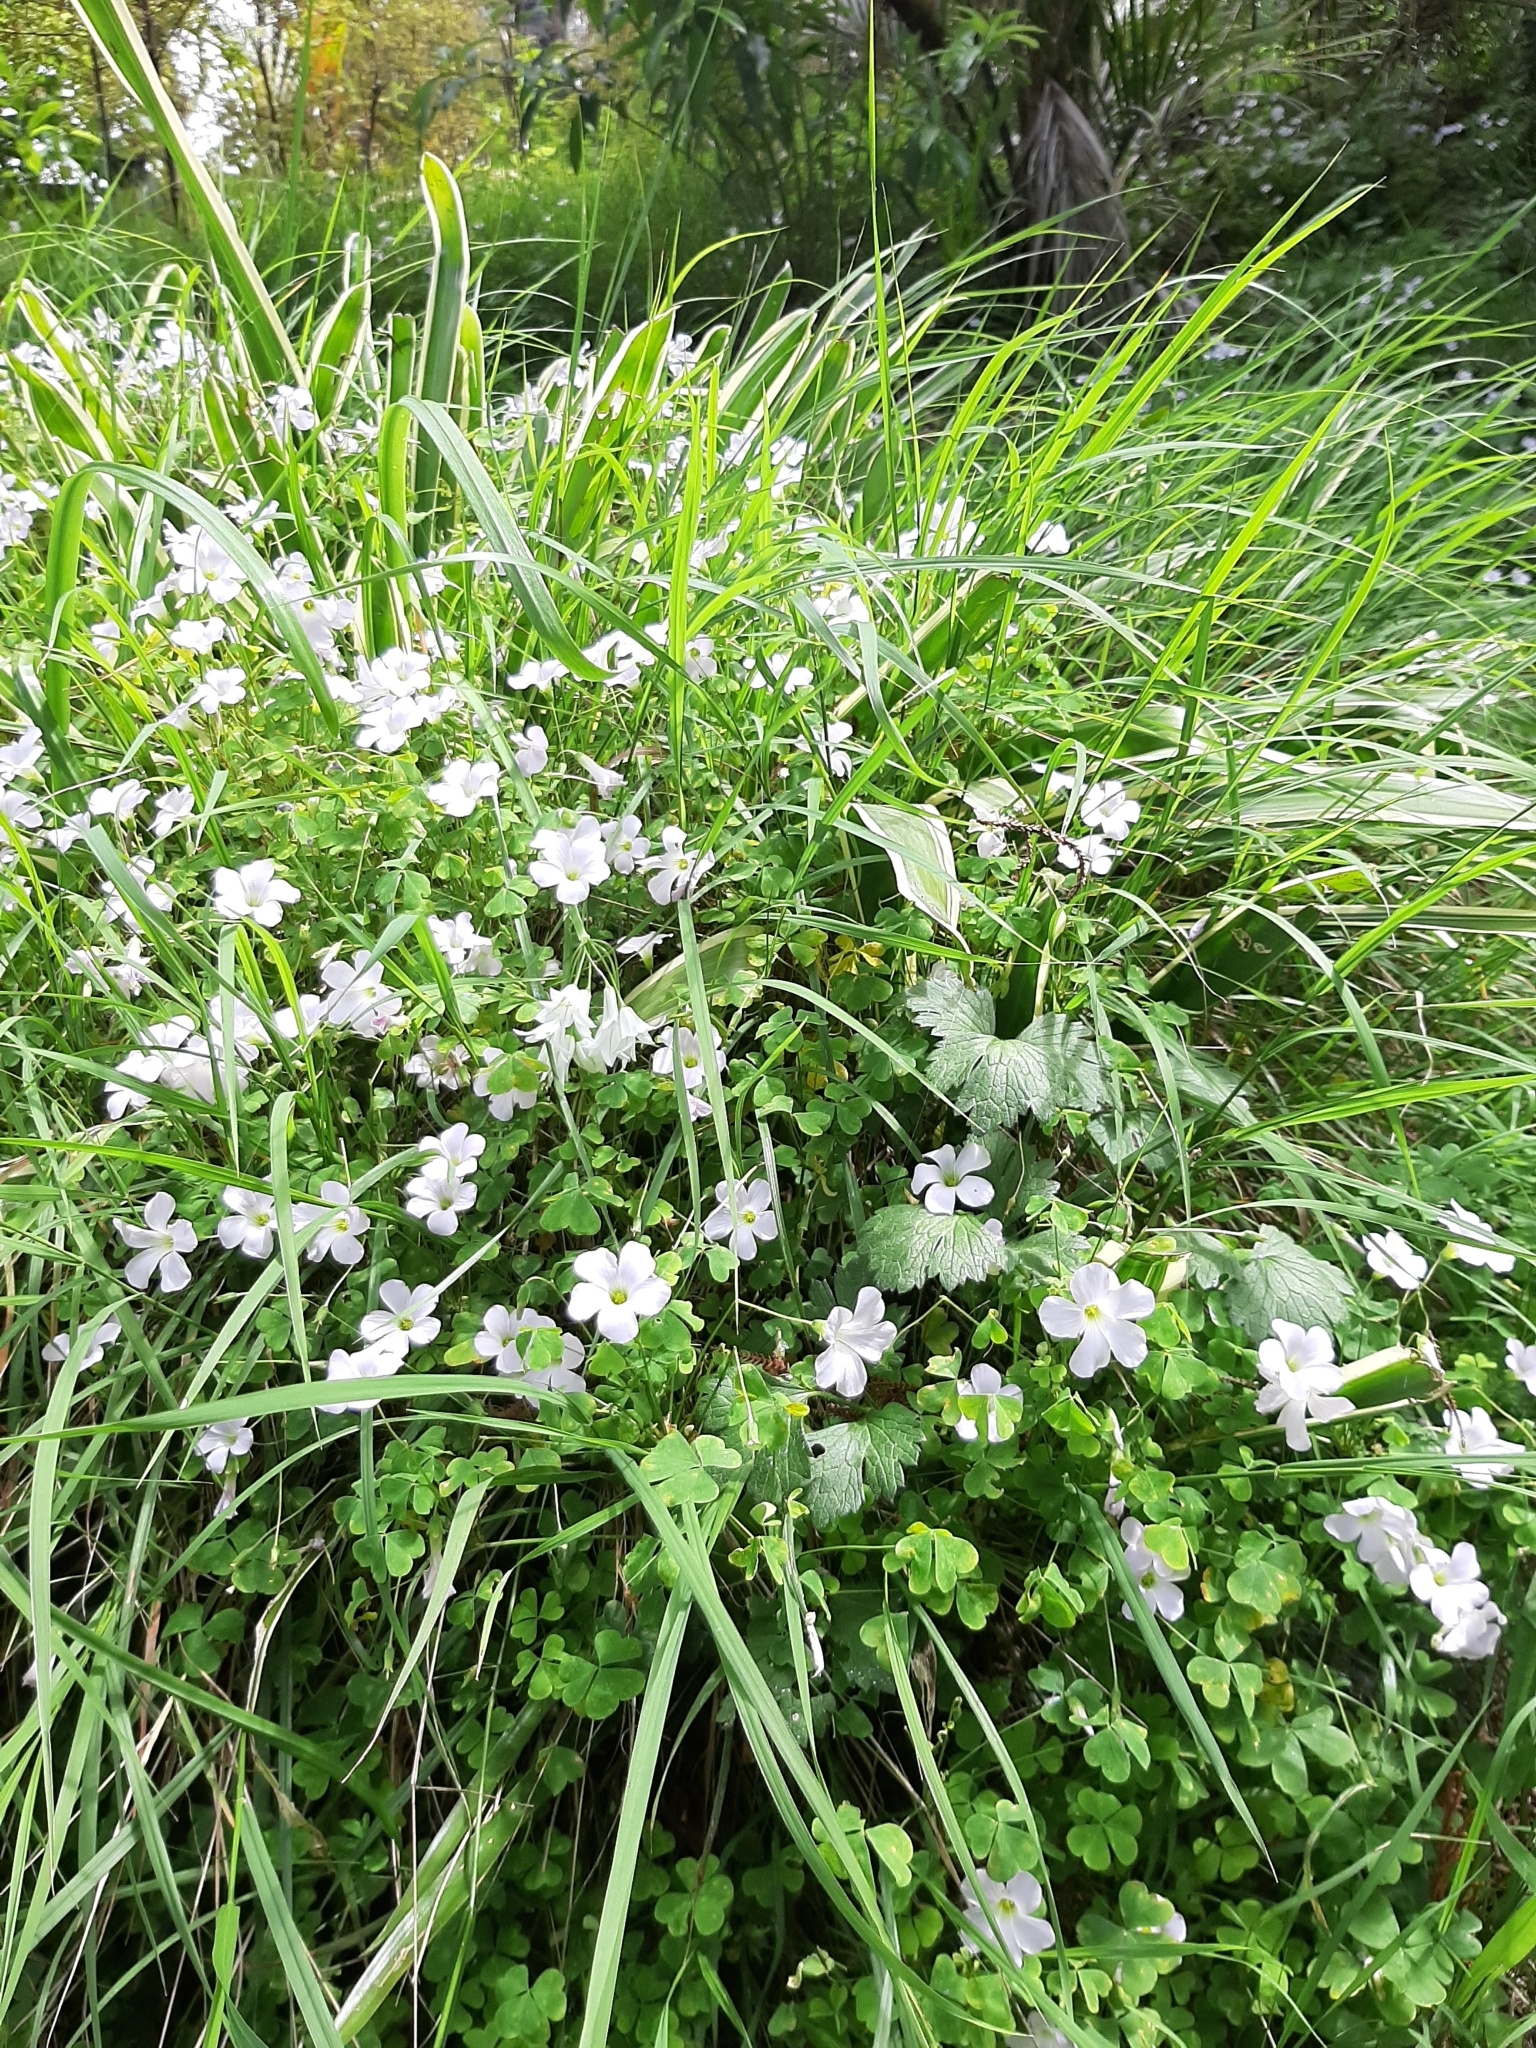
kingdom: Plantae
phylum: Tracheophyta
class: Magnoliopsida
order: Oxalidales
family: Oxalidaceae
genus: Oxalis
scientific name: Oxalis incarnata
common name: Pale pink-sorrel
